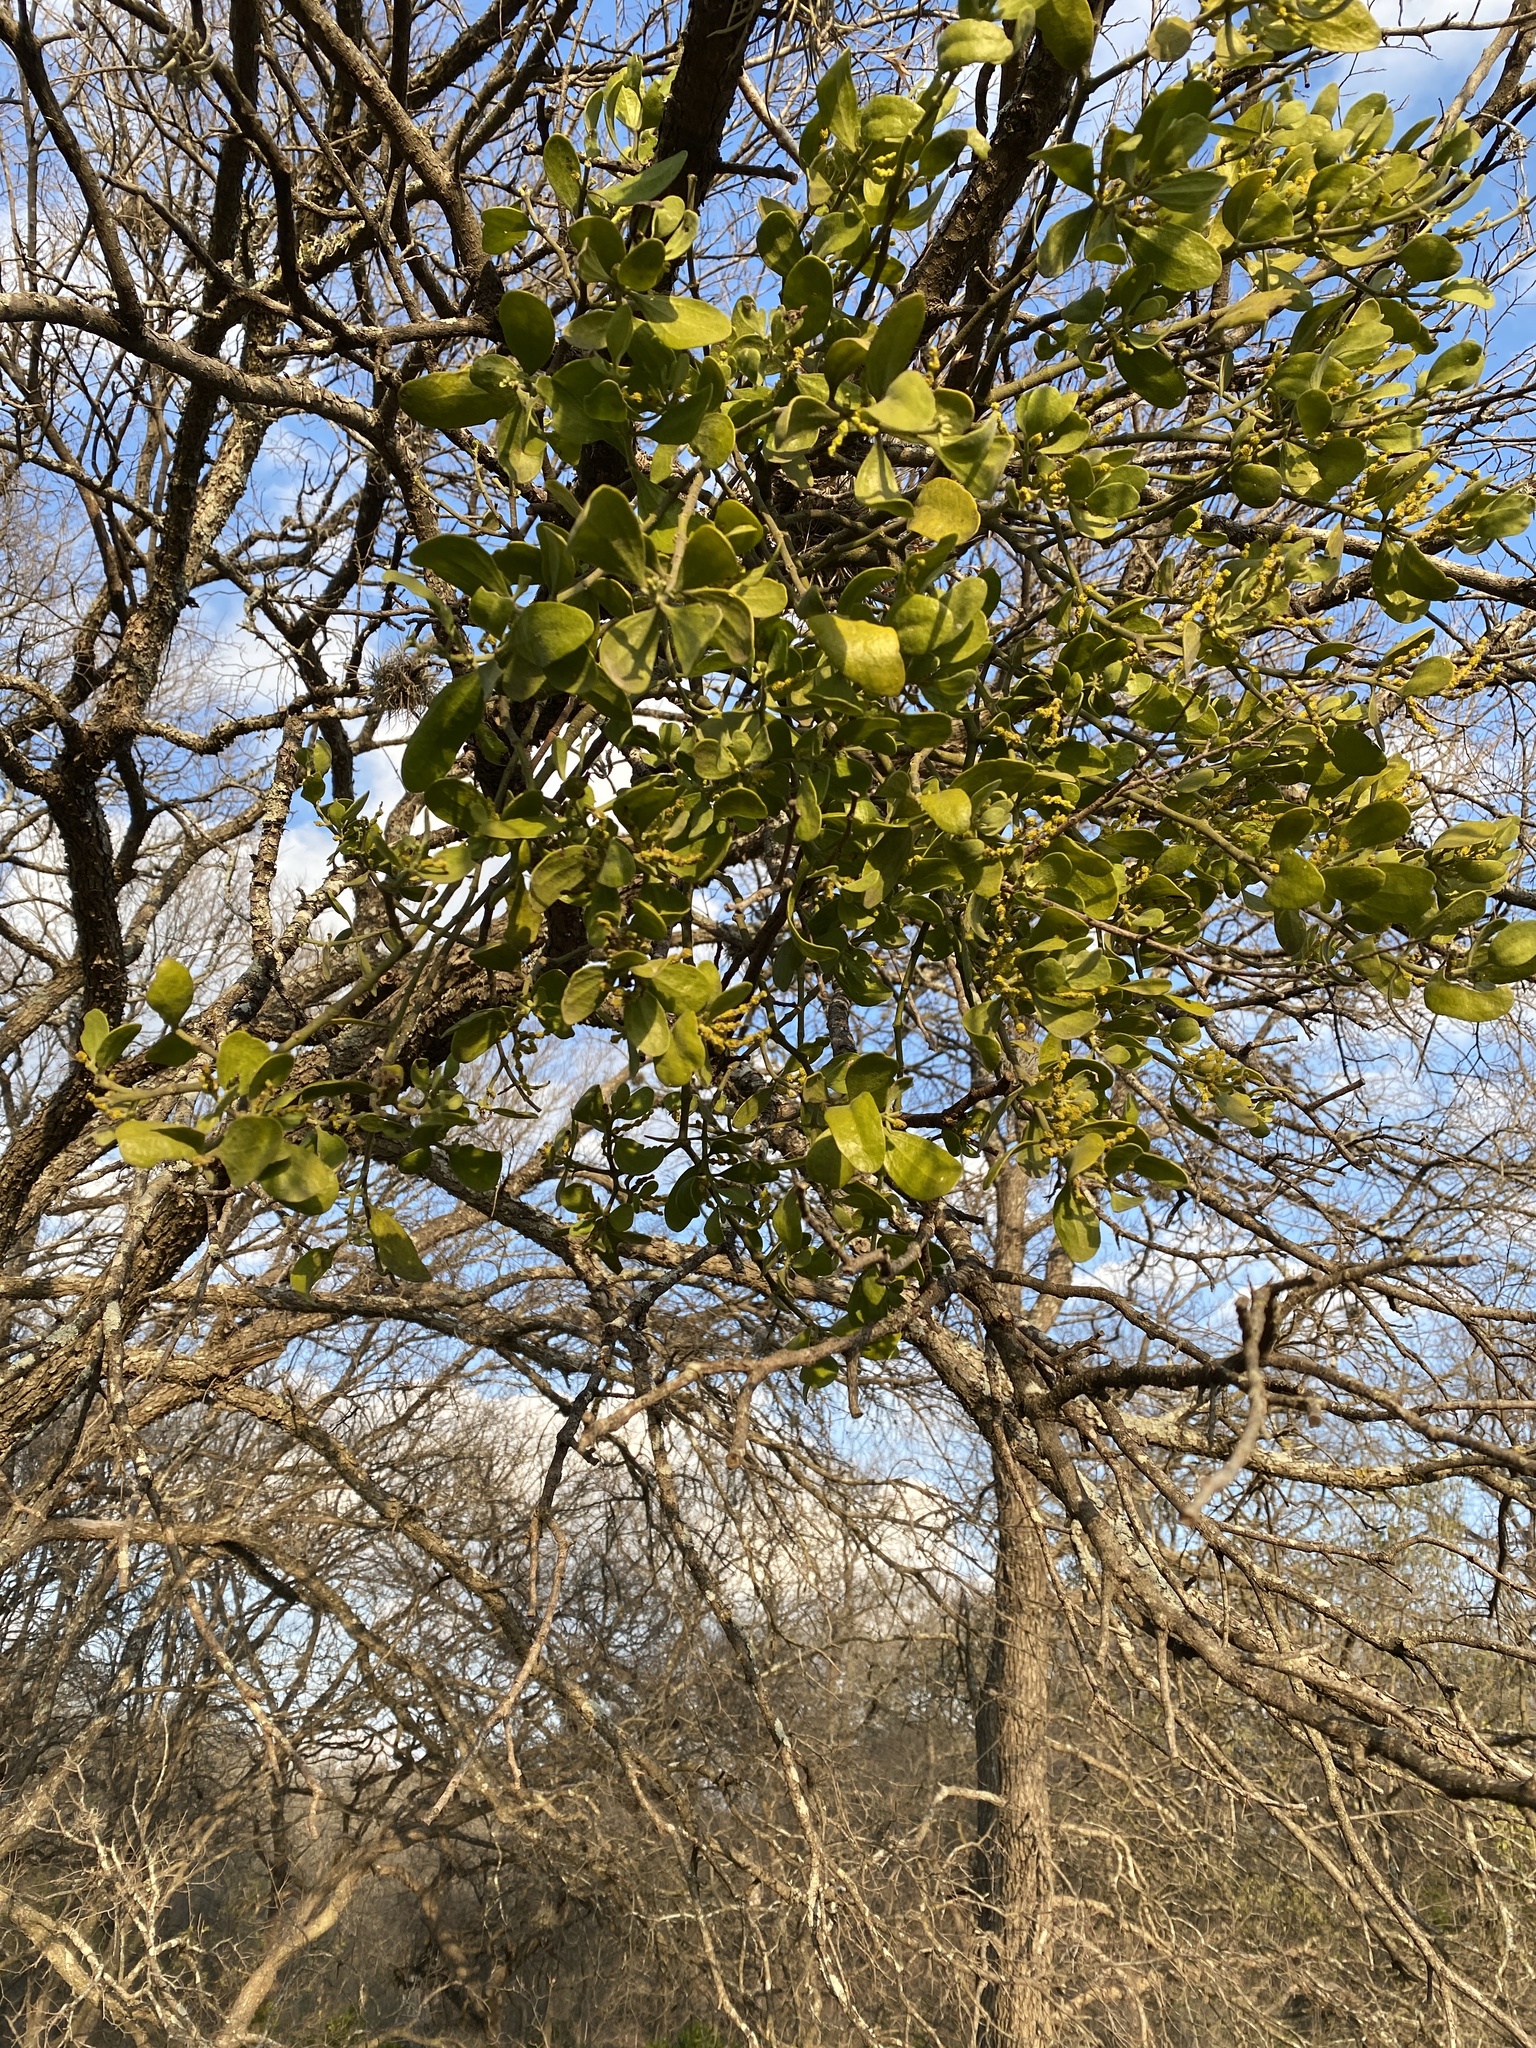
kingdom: Plantae
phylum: Tracheophyta
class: Magnoliopsida
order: Santalales
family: Viscaceae
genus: Phoradendron
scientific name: Phoradendron leucarpum
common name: Pacific mistletoe
